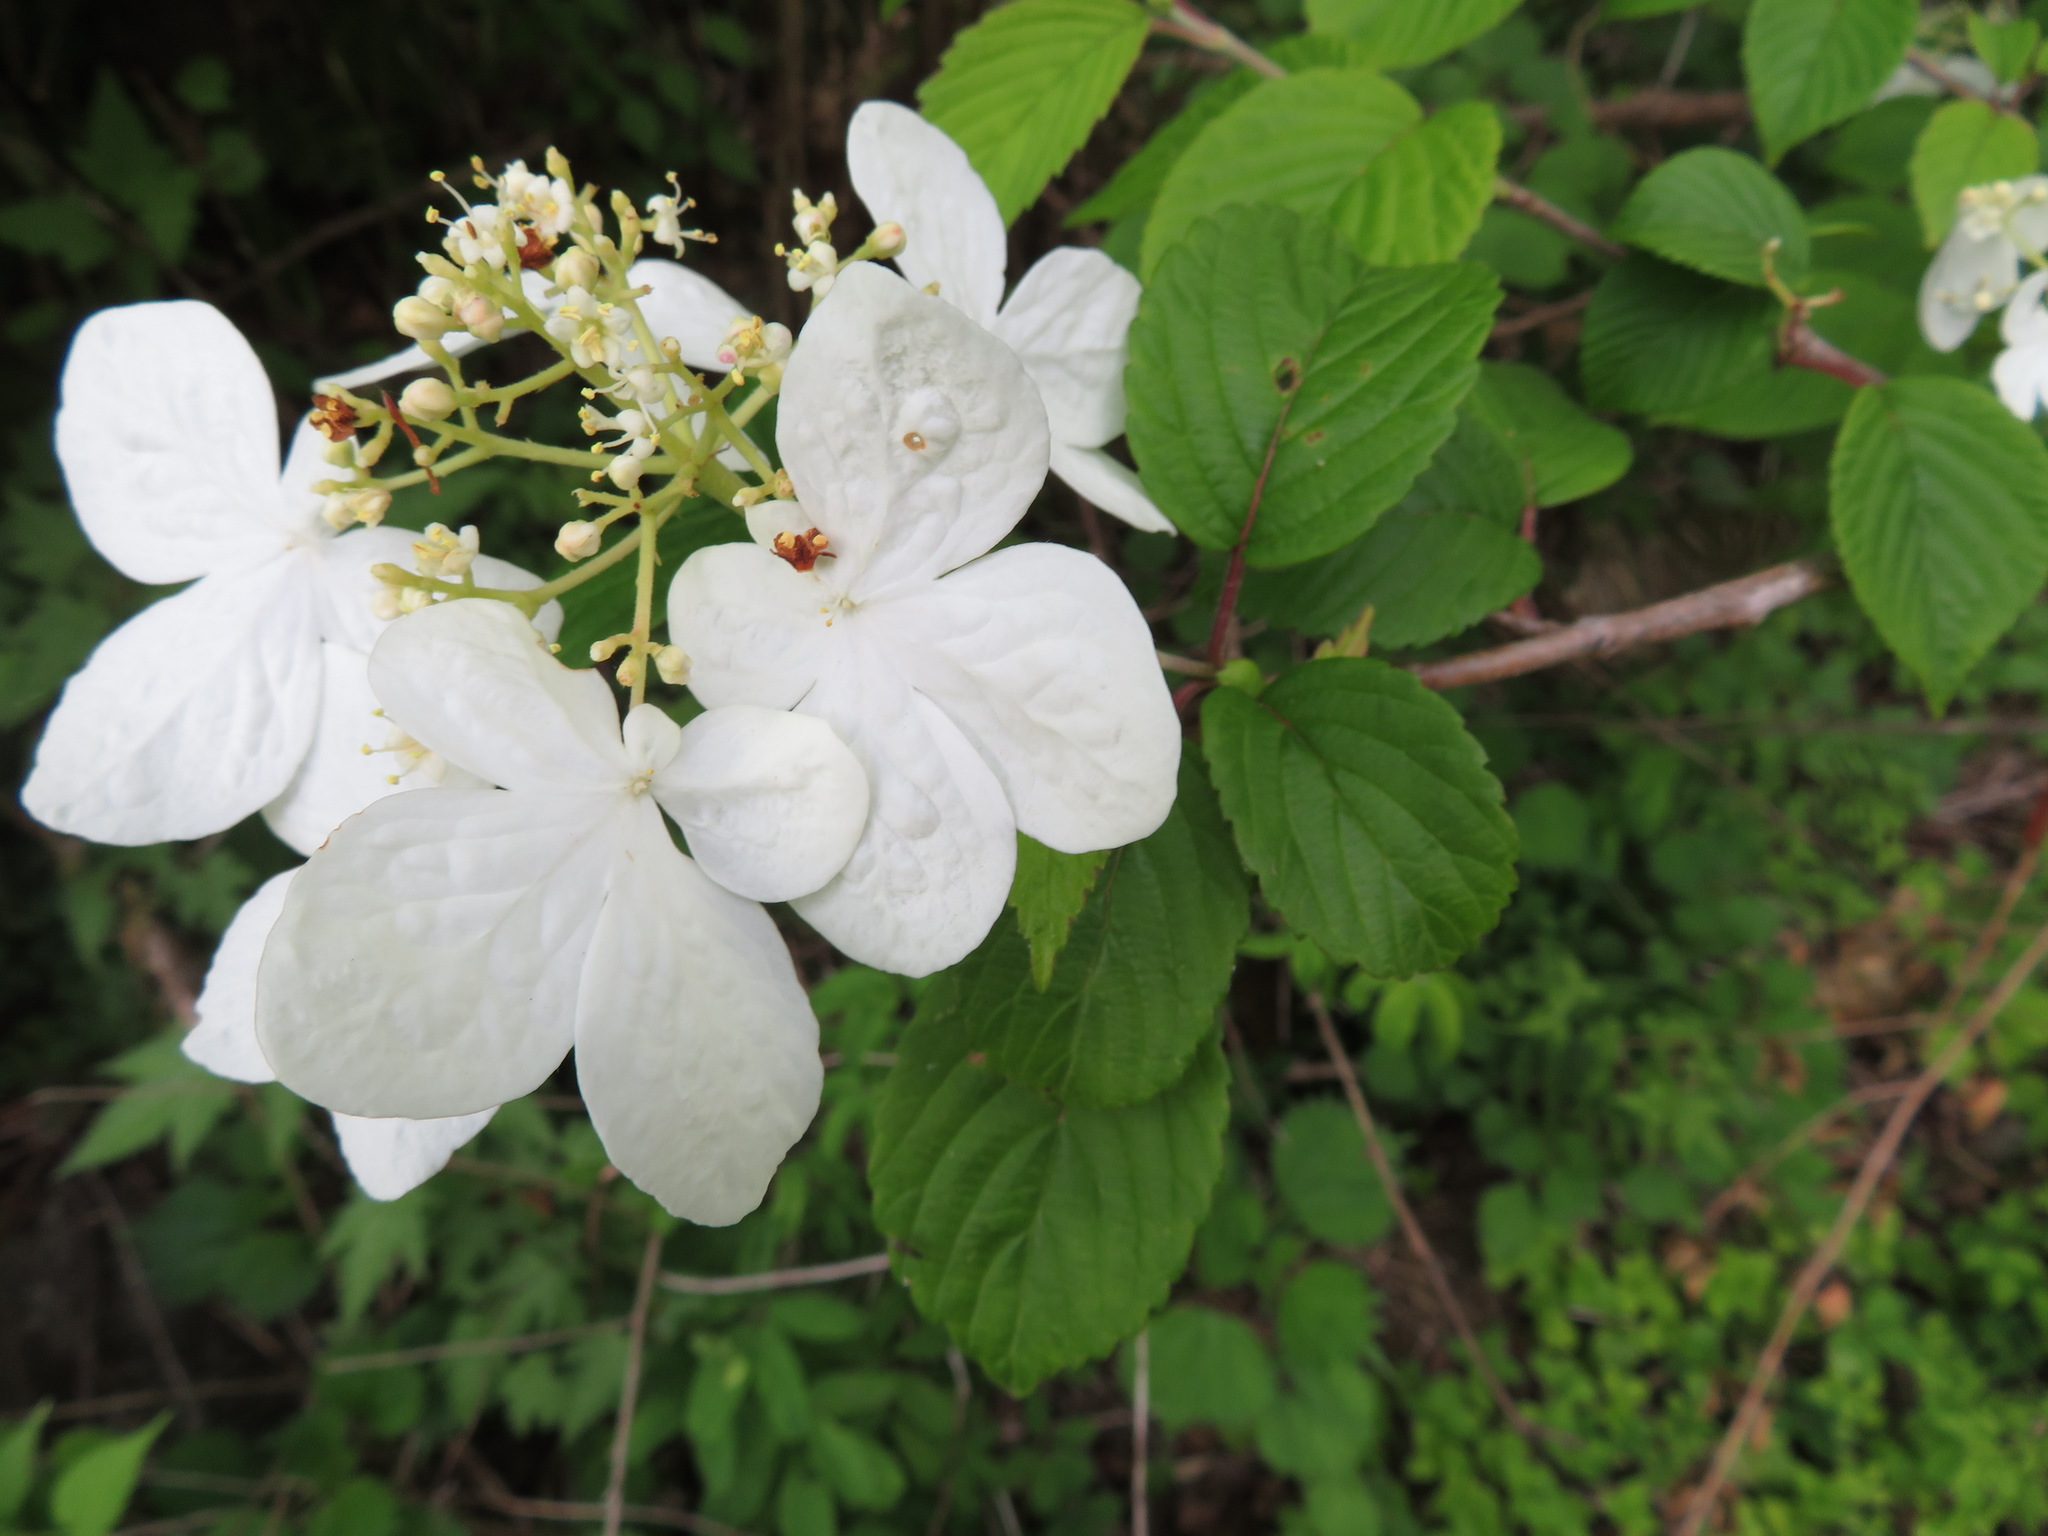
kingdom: Plantae
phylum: Tracheophyta
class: Magnoliopsida
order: Dipsacales
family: Viburnaceae
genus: Viburnum
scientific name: Viburnum plicatum
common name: Japanese snowball
